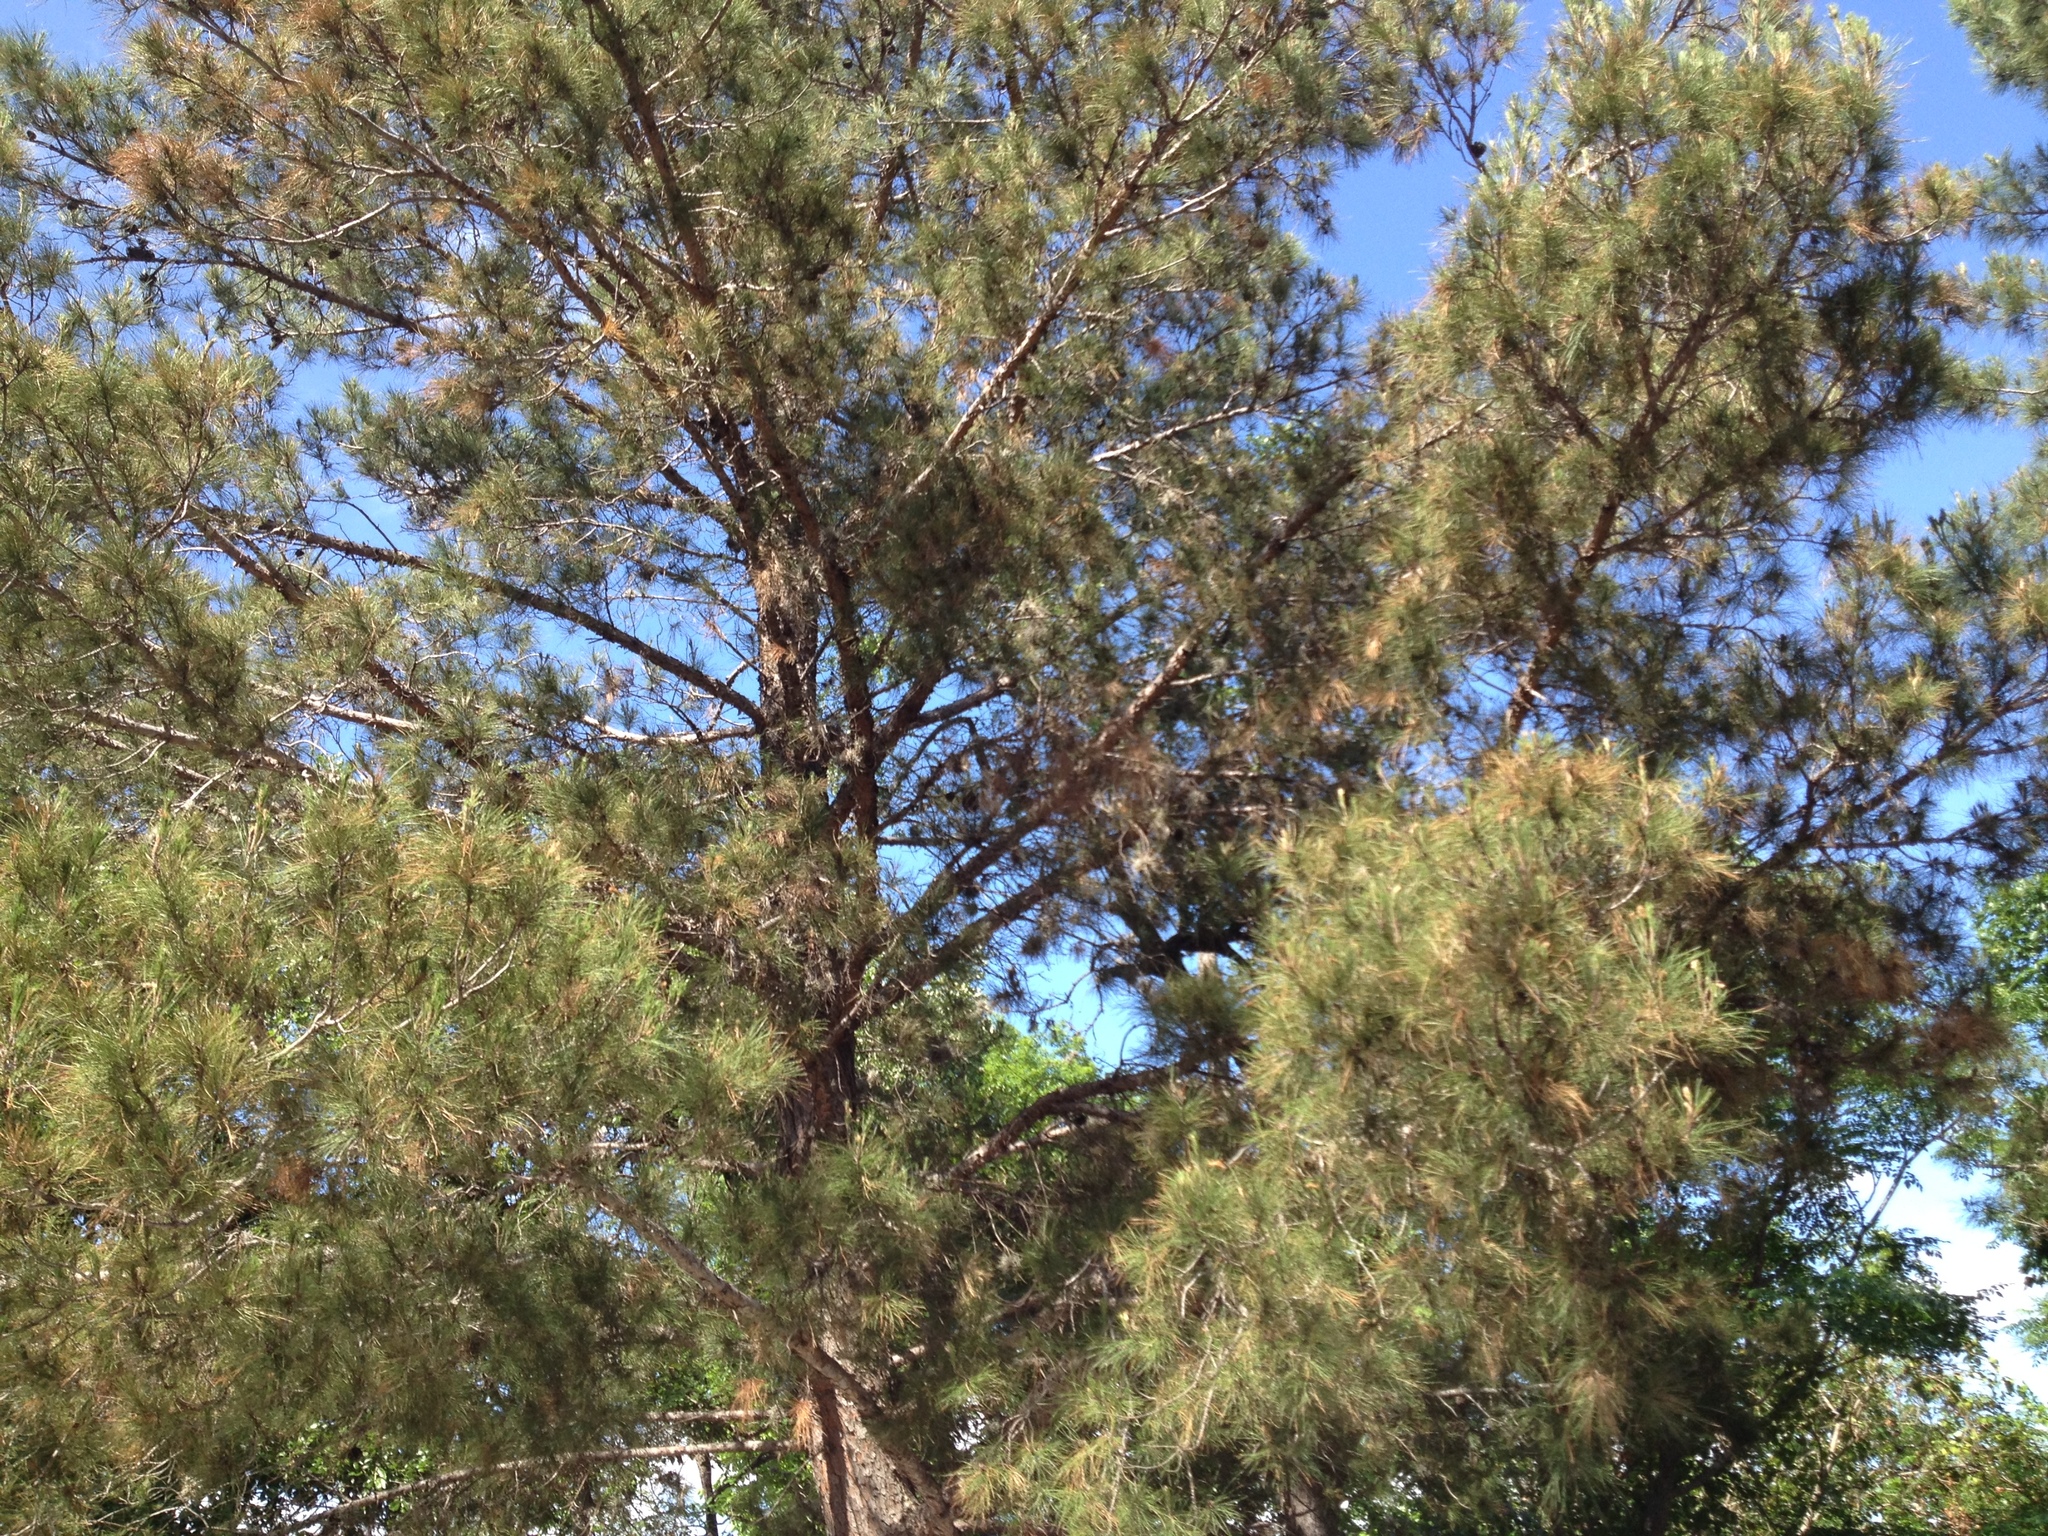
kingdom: Plantae
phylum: Tracheophyta
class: Pinopsida
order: Pinales
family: Pinaceae
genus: Pinus
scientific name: Pinus brutia
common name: Turkish pine
